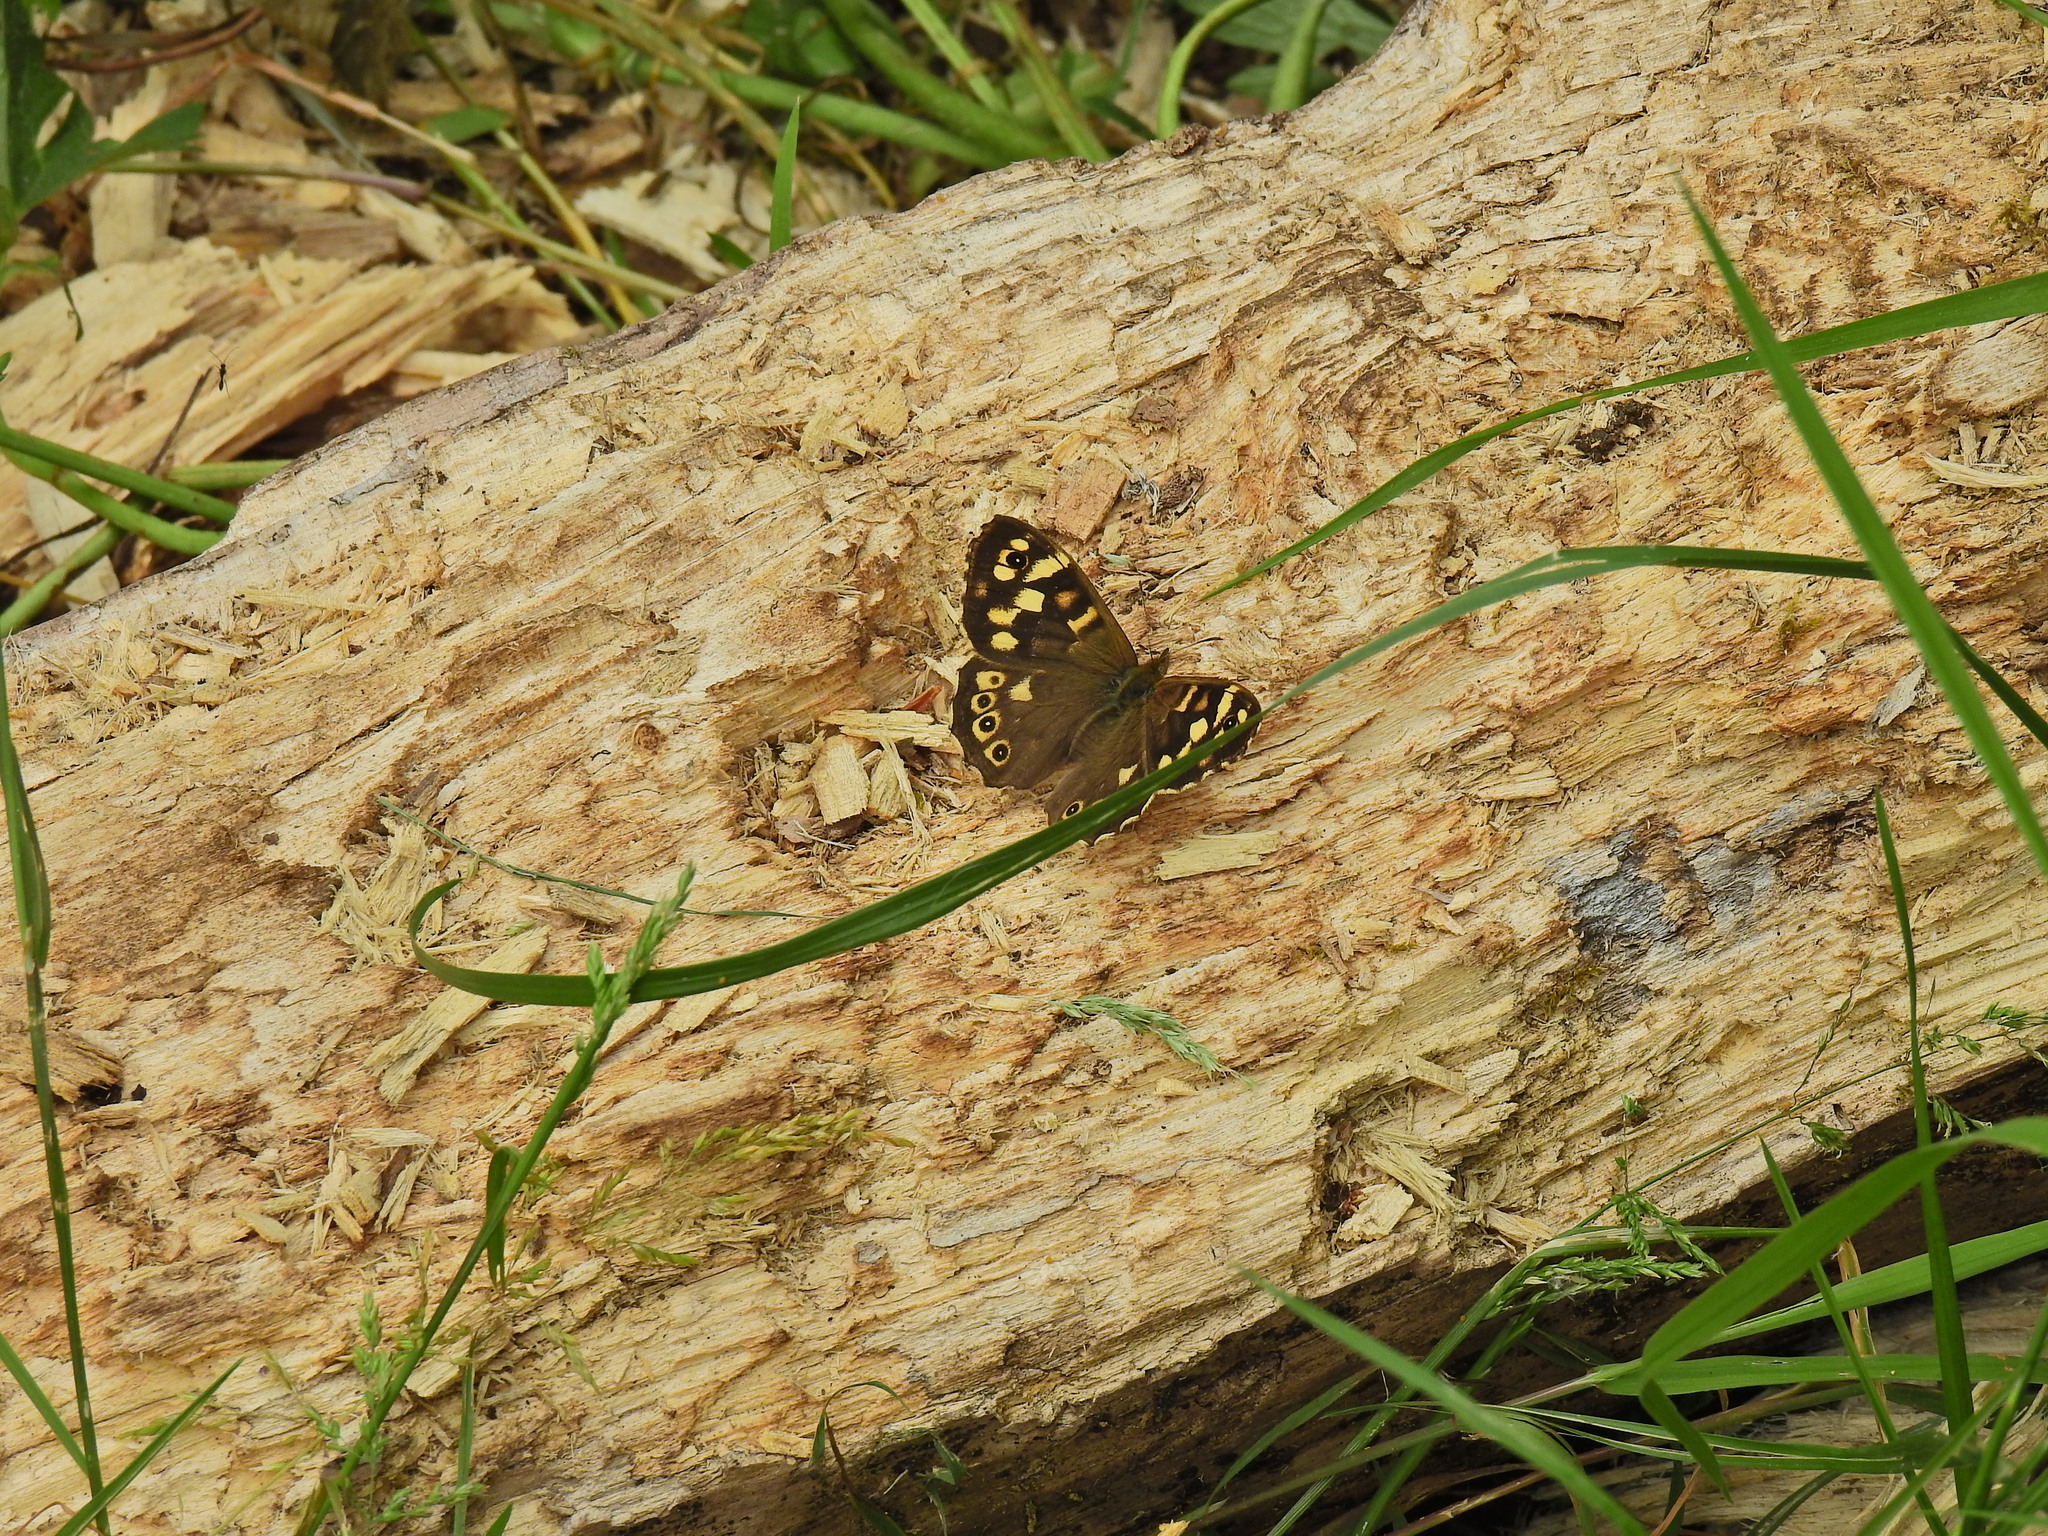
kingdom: Animalia
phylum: Arthropoda
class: Insecta
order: Lepidoptera
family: Nymphalidae
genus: Pararge
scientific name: Pararge aegeria
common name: Speckled wood
